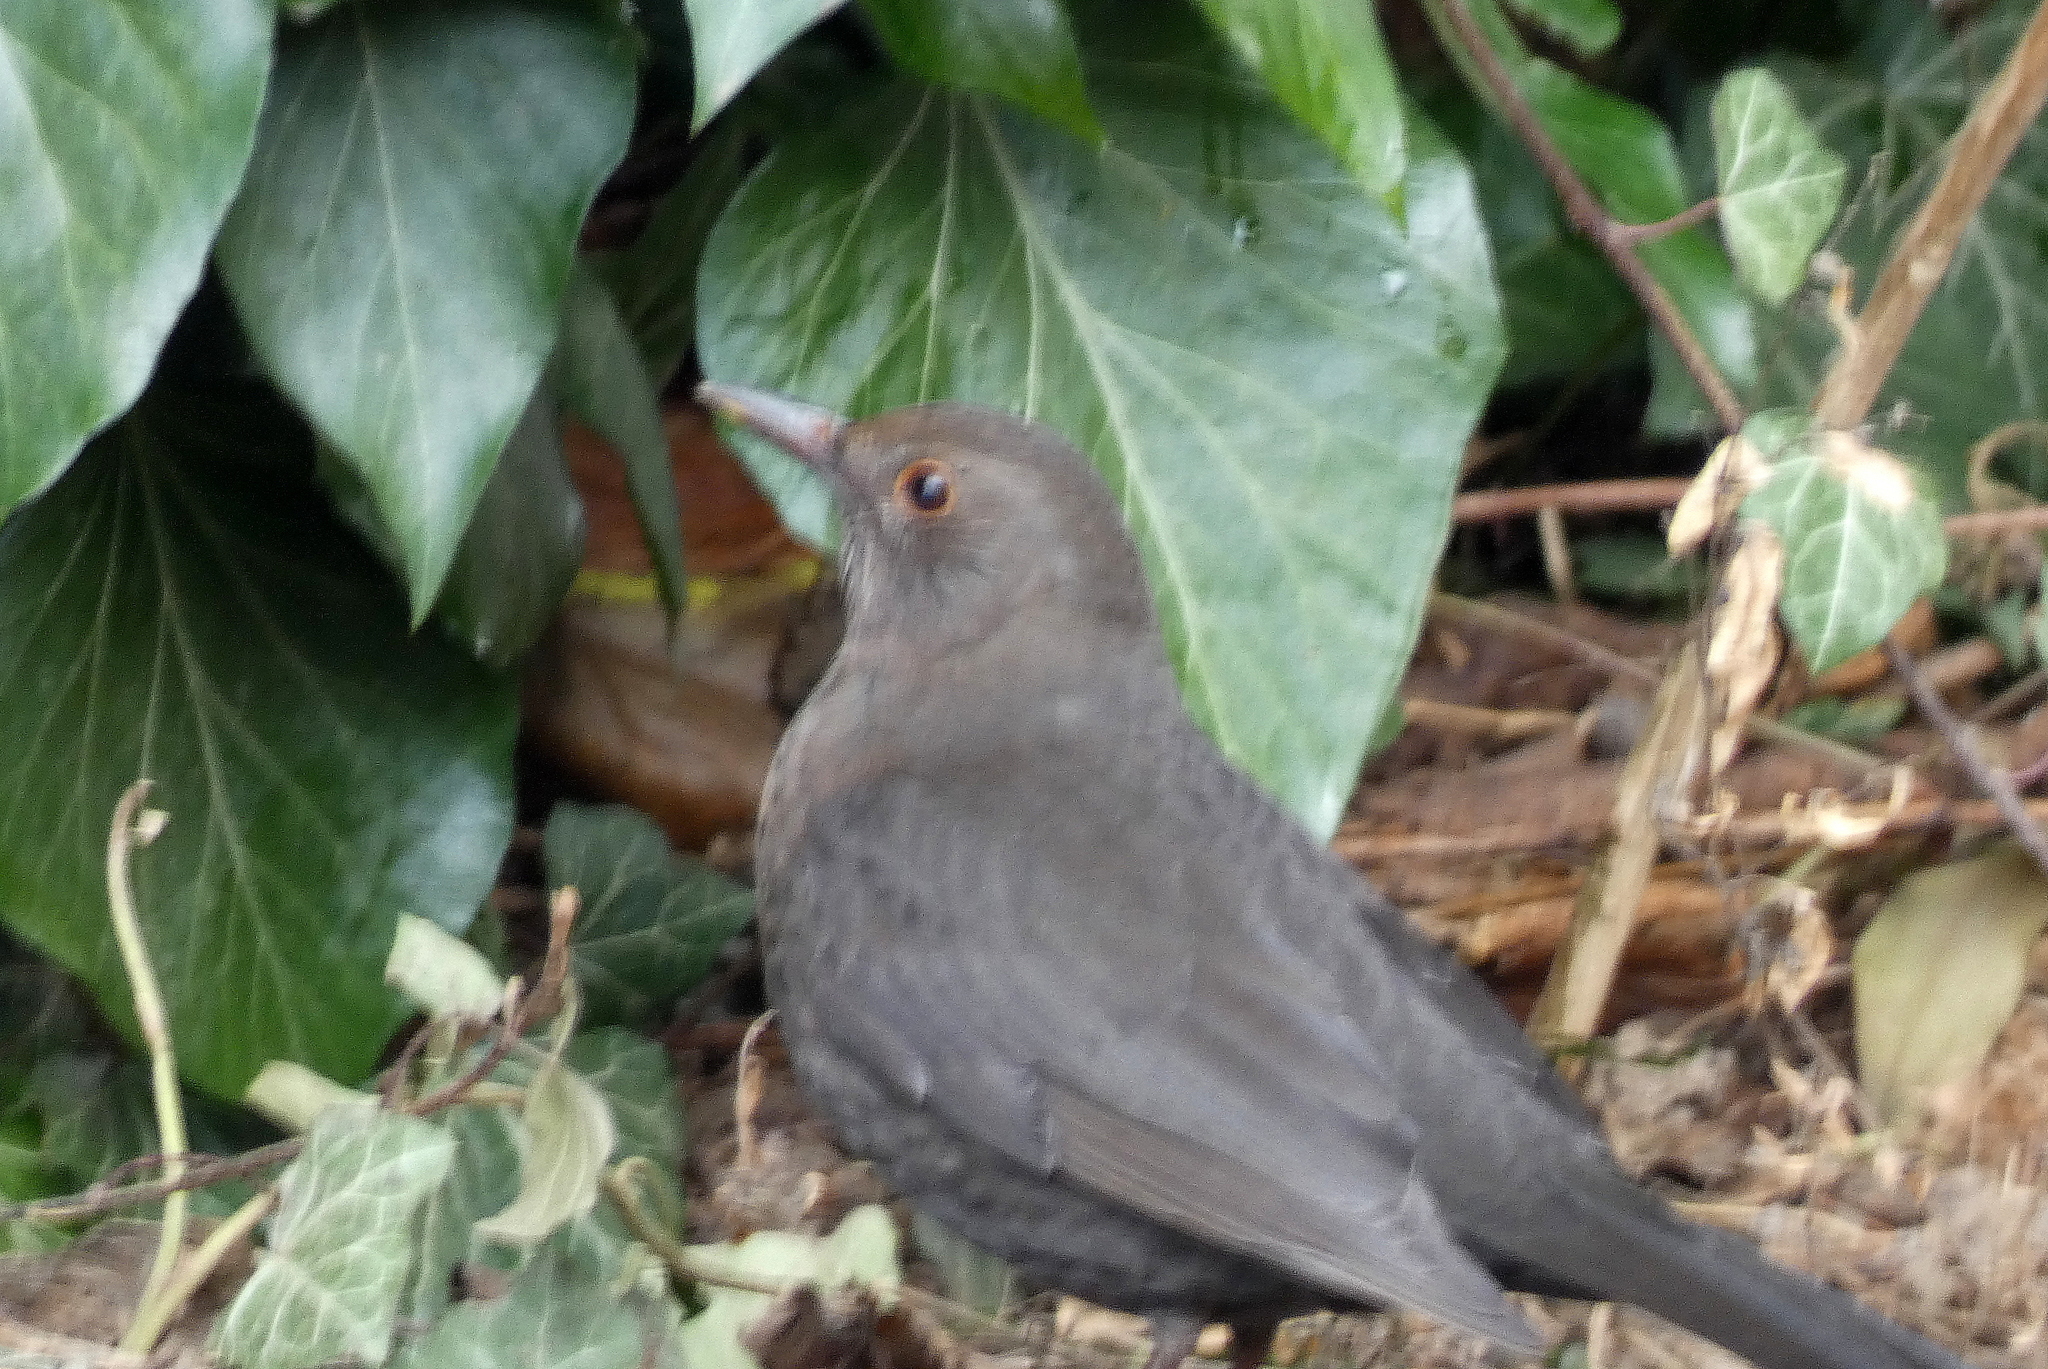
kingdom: Animalia
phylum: Chordata
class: Aves
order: Passeriformes
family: Turdidae
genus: Turdus
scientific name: Turdus merula
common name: Common blackbird
